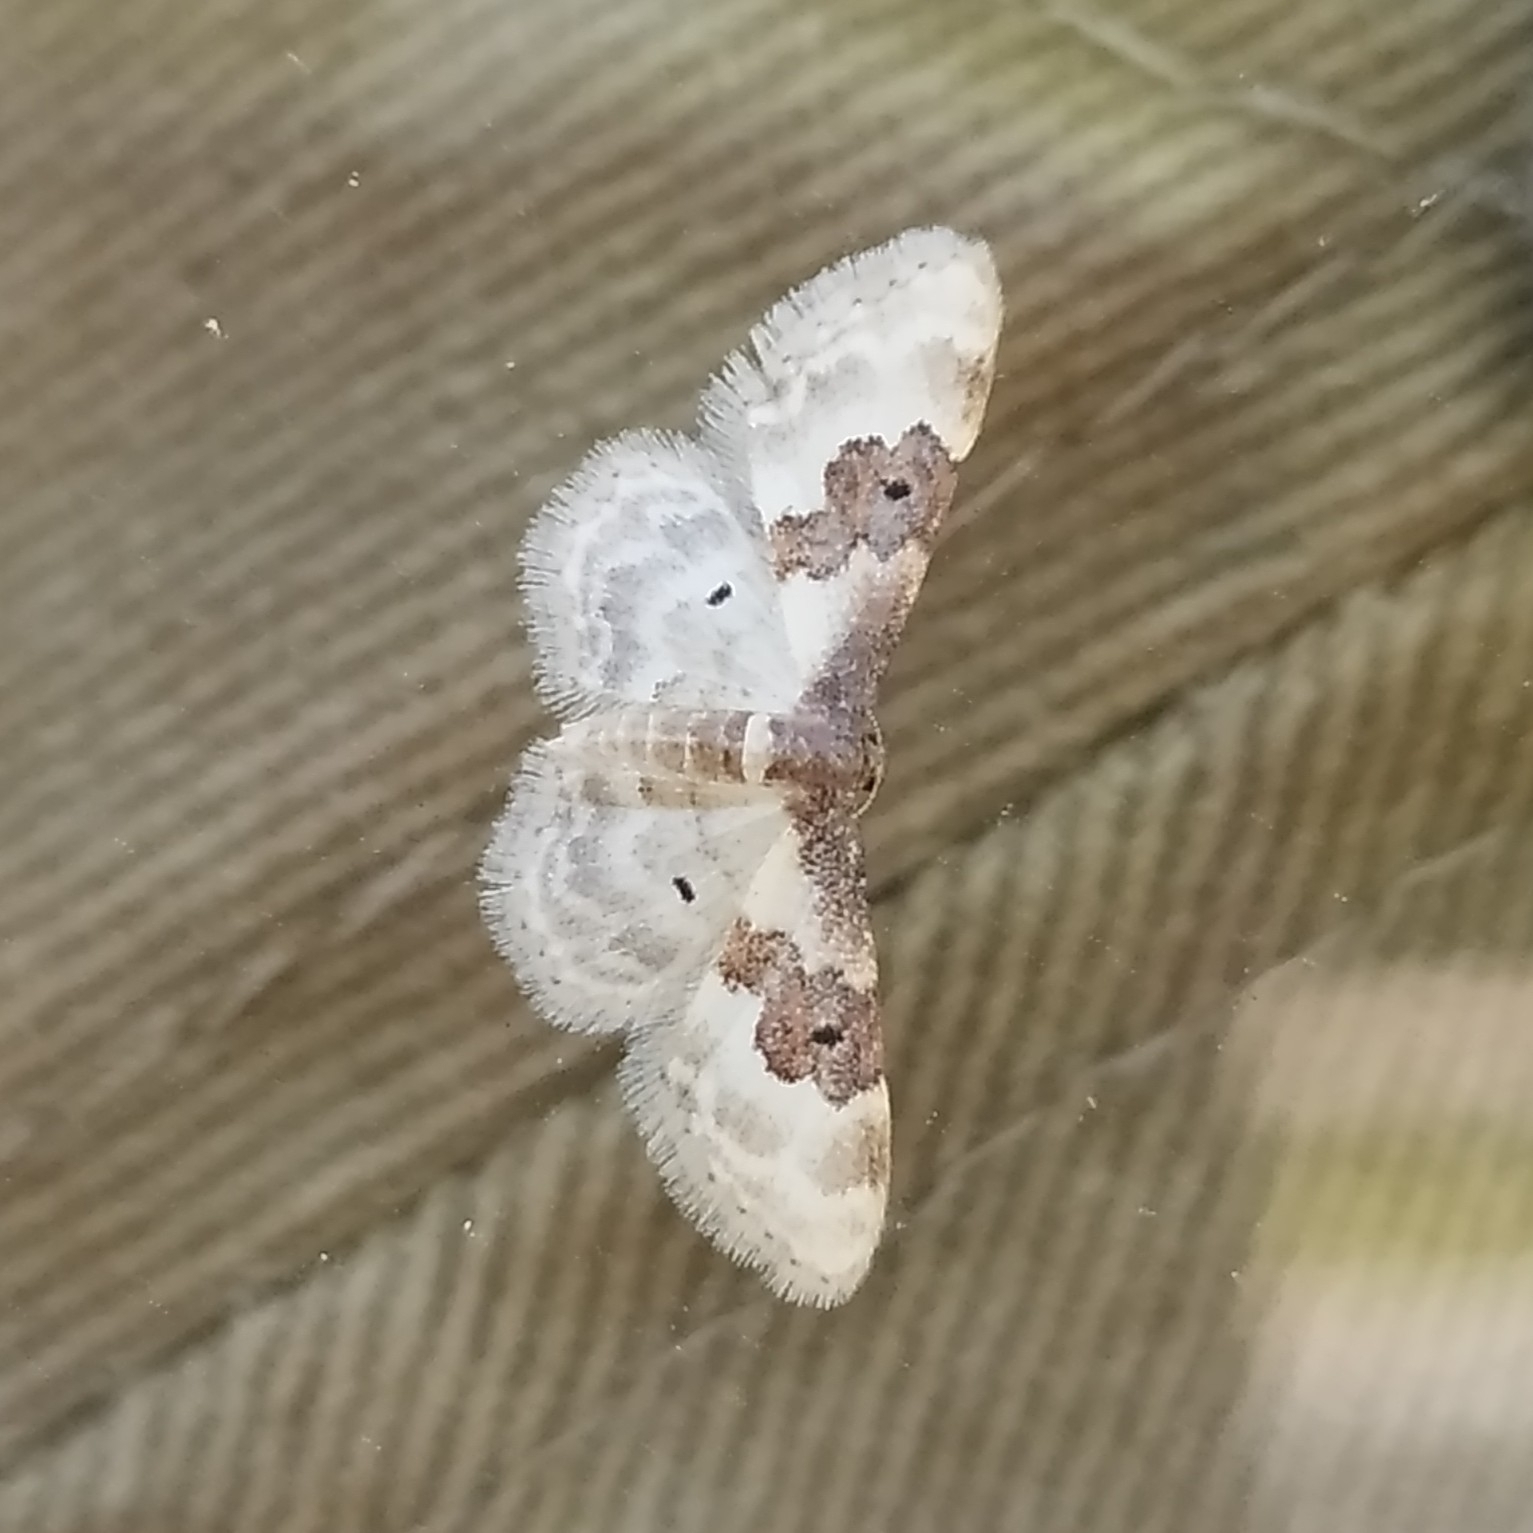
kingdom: Animalia
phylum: Arthropoda
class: Insecta
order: Lepidoptera
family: Geometridae
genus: Idaea
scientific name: Idaea rusticata
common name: Least carpet
